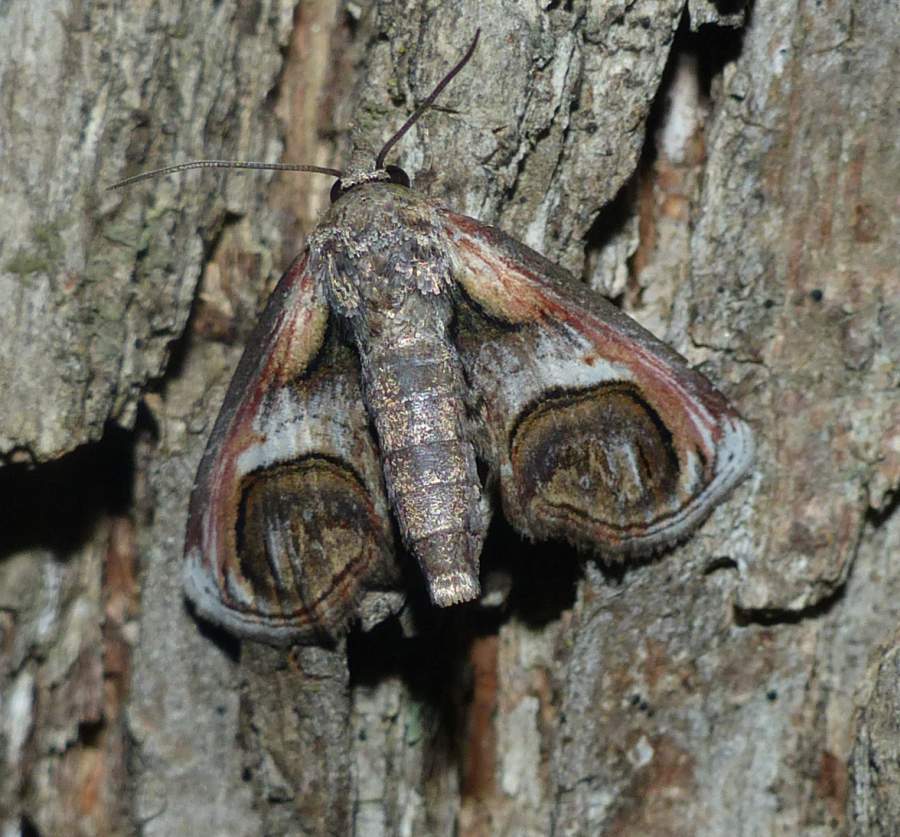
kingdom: Animalia
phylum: Arthropoda
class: Insecta
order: Lepidoptera
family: Euteliidae
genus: Paectes
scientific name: Paectes oculatrix
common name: Eyed paectes moth
